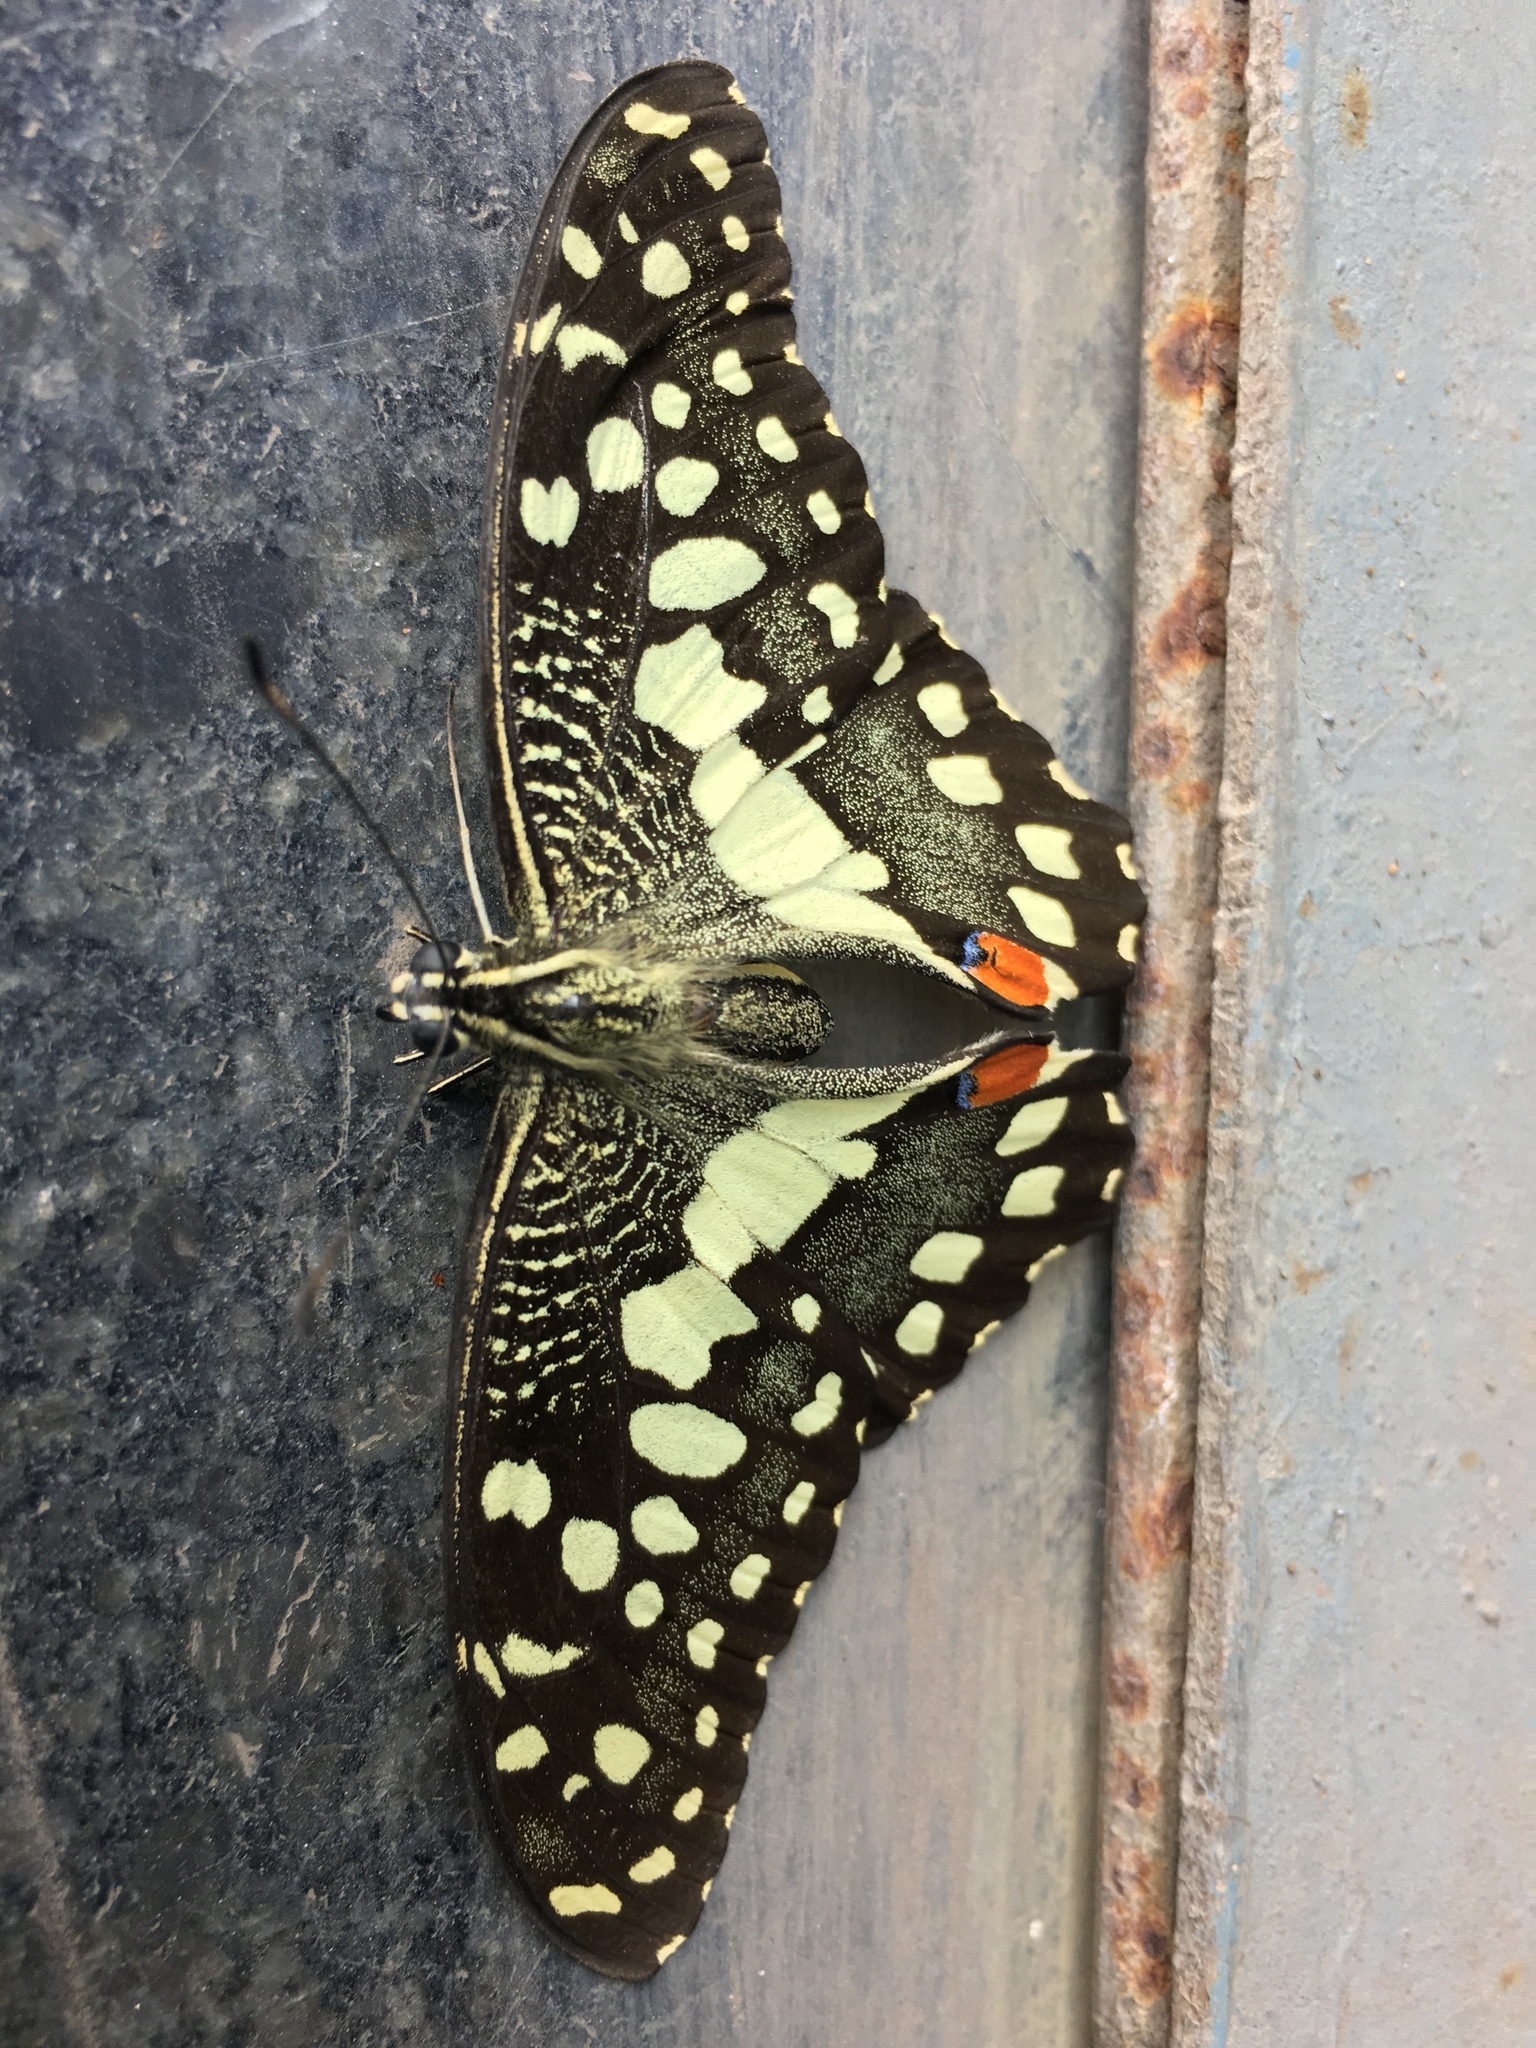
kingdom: Animalia
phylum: Arthropoda
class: Insecta
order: Lepidoptera
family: Papilionidae
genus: Papilio
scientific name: Papilio demoleus
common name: Lime butterfly
